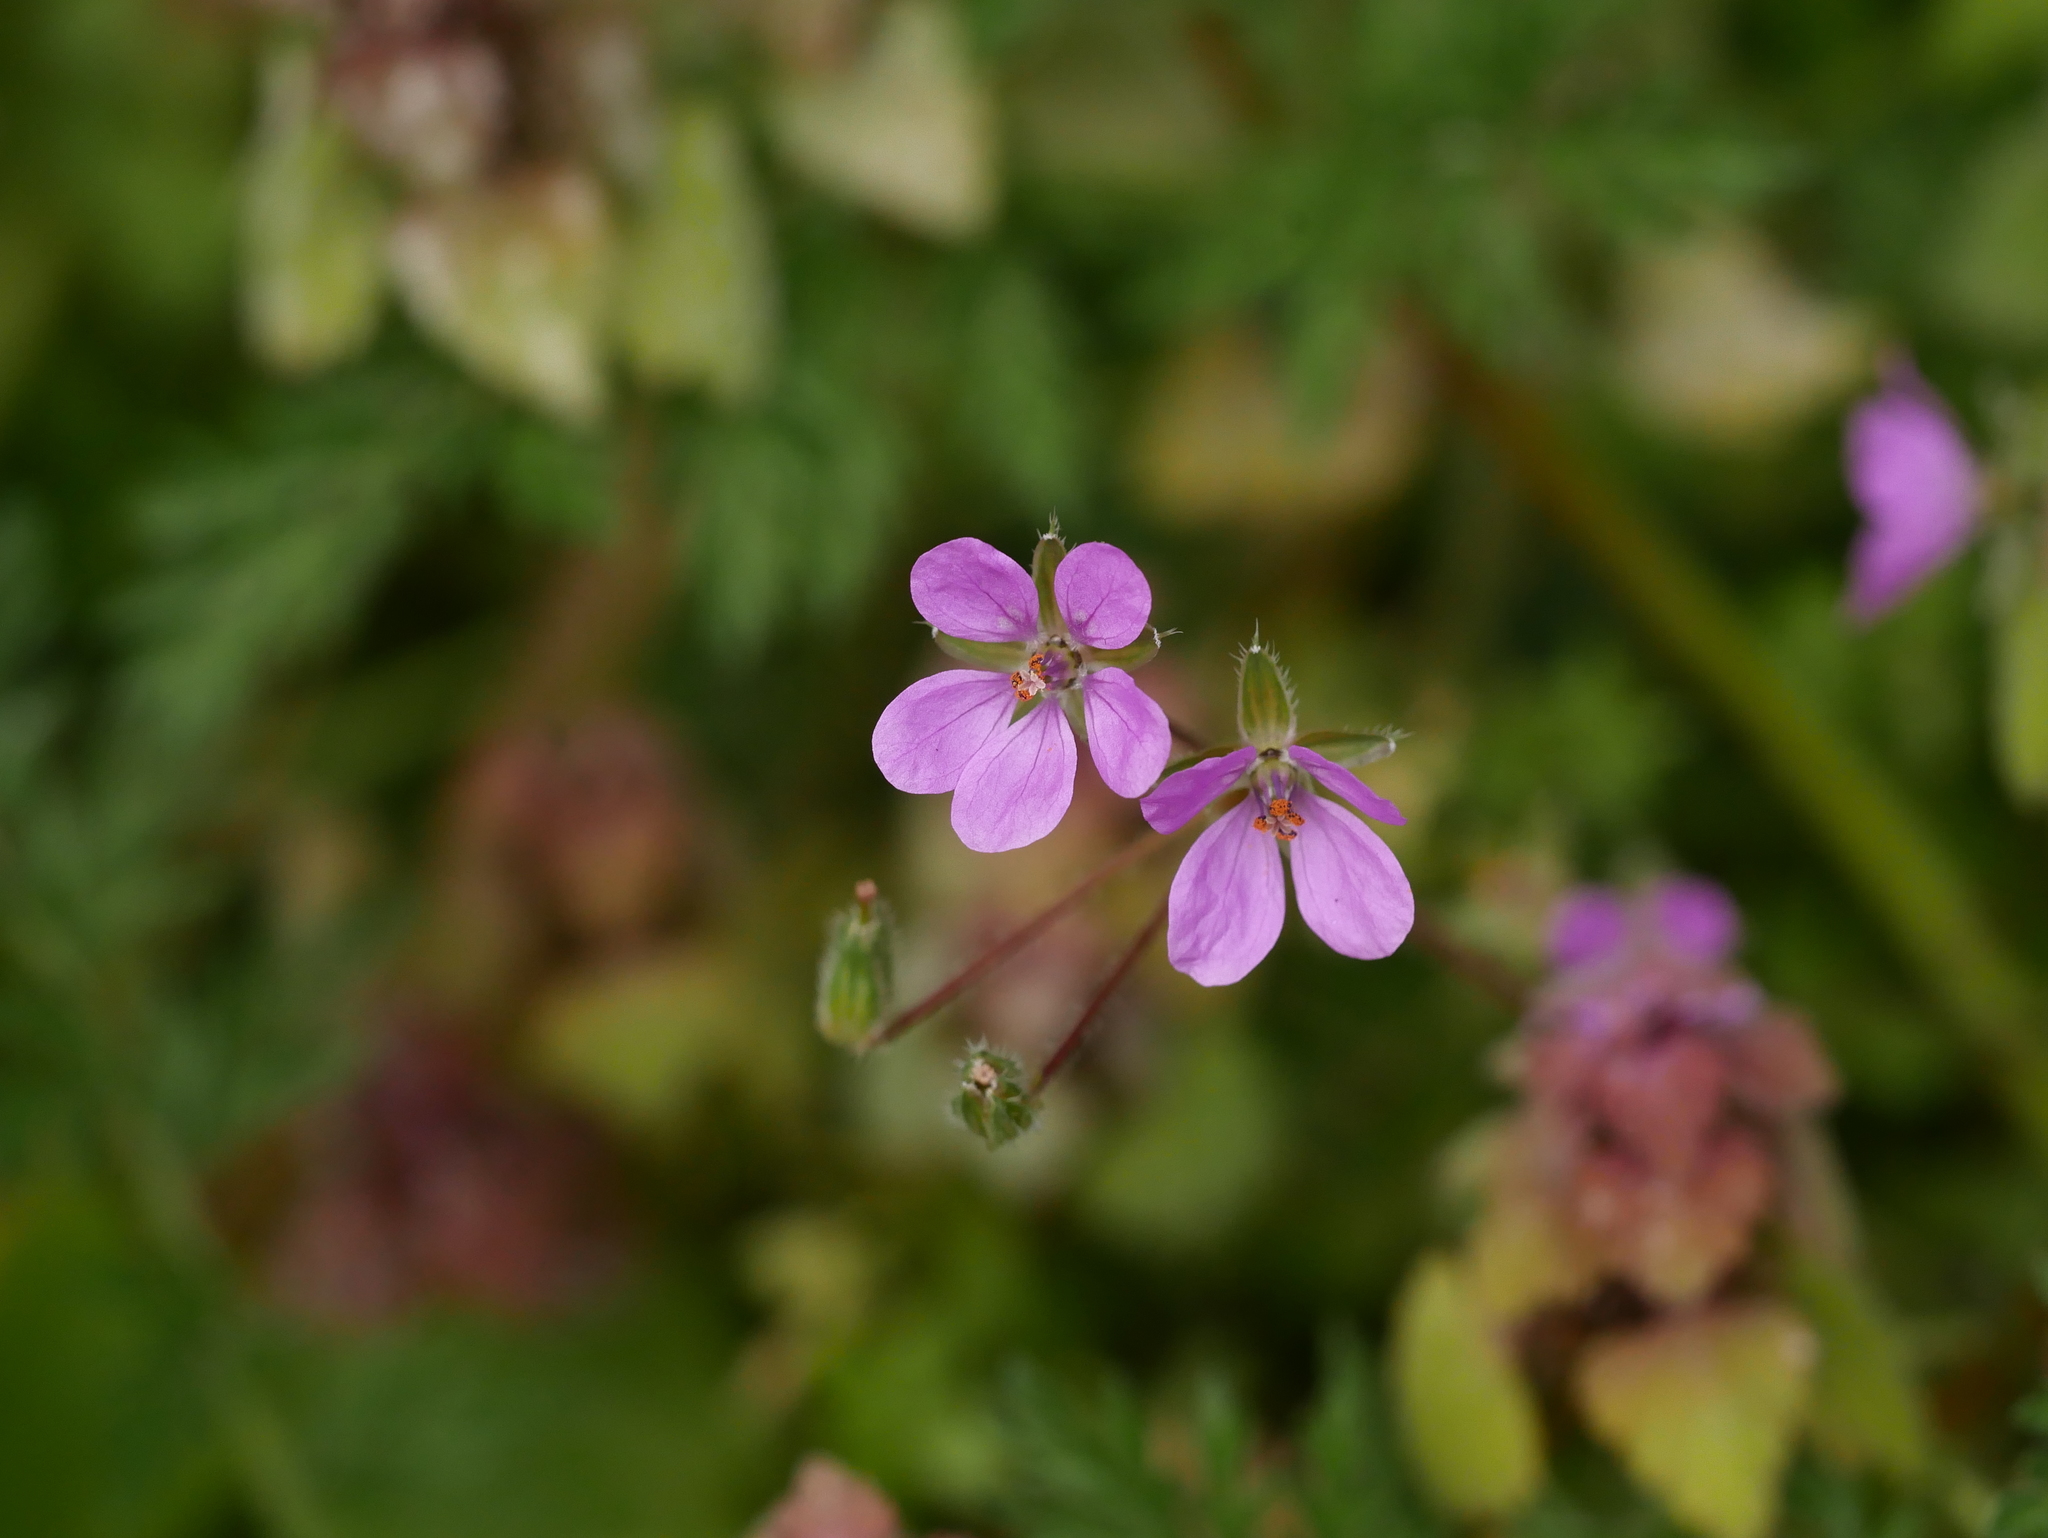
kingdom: Plantae
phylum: Tracheophyta
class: Magnoliopsida
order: Geraniales
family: Geraniaceae
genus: Erodium
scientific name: Erodium cicutarium
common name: Common stork's-bill
